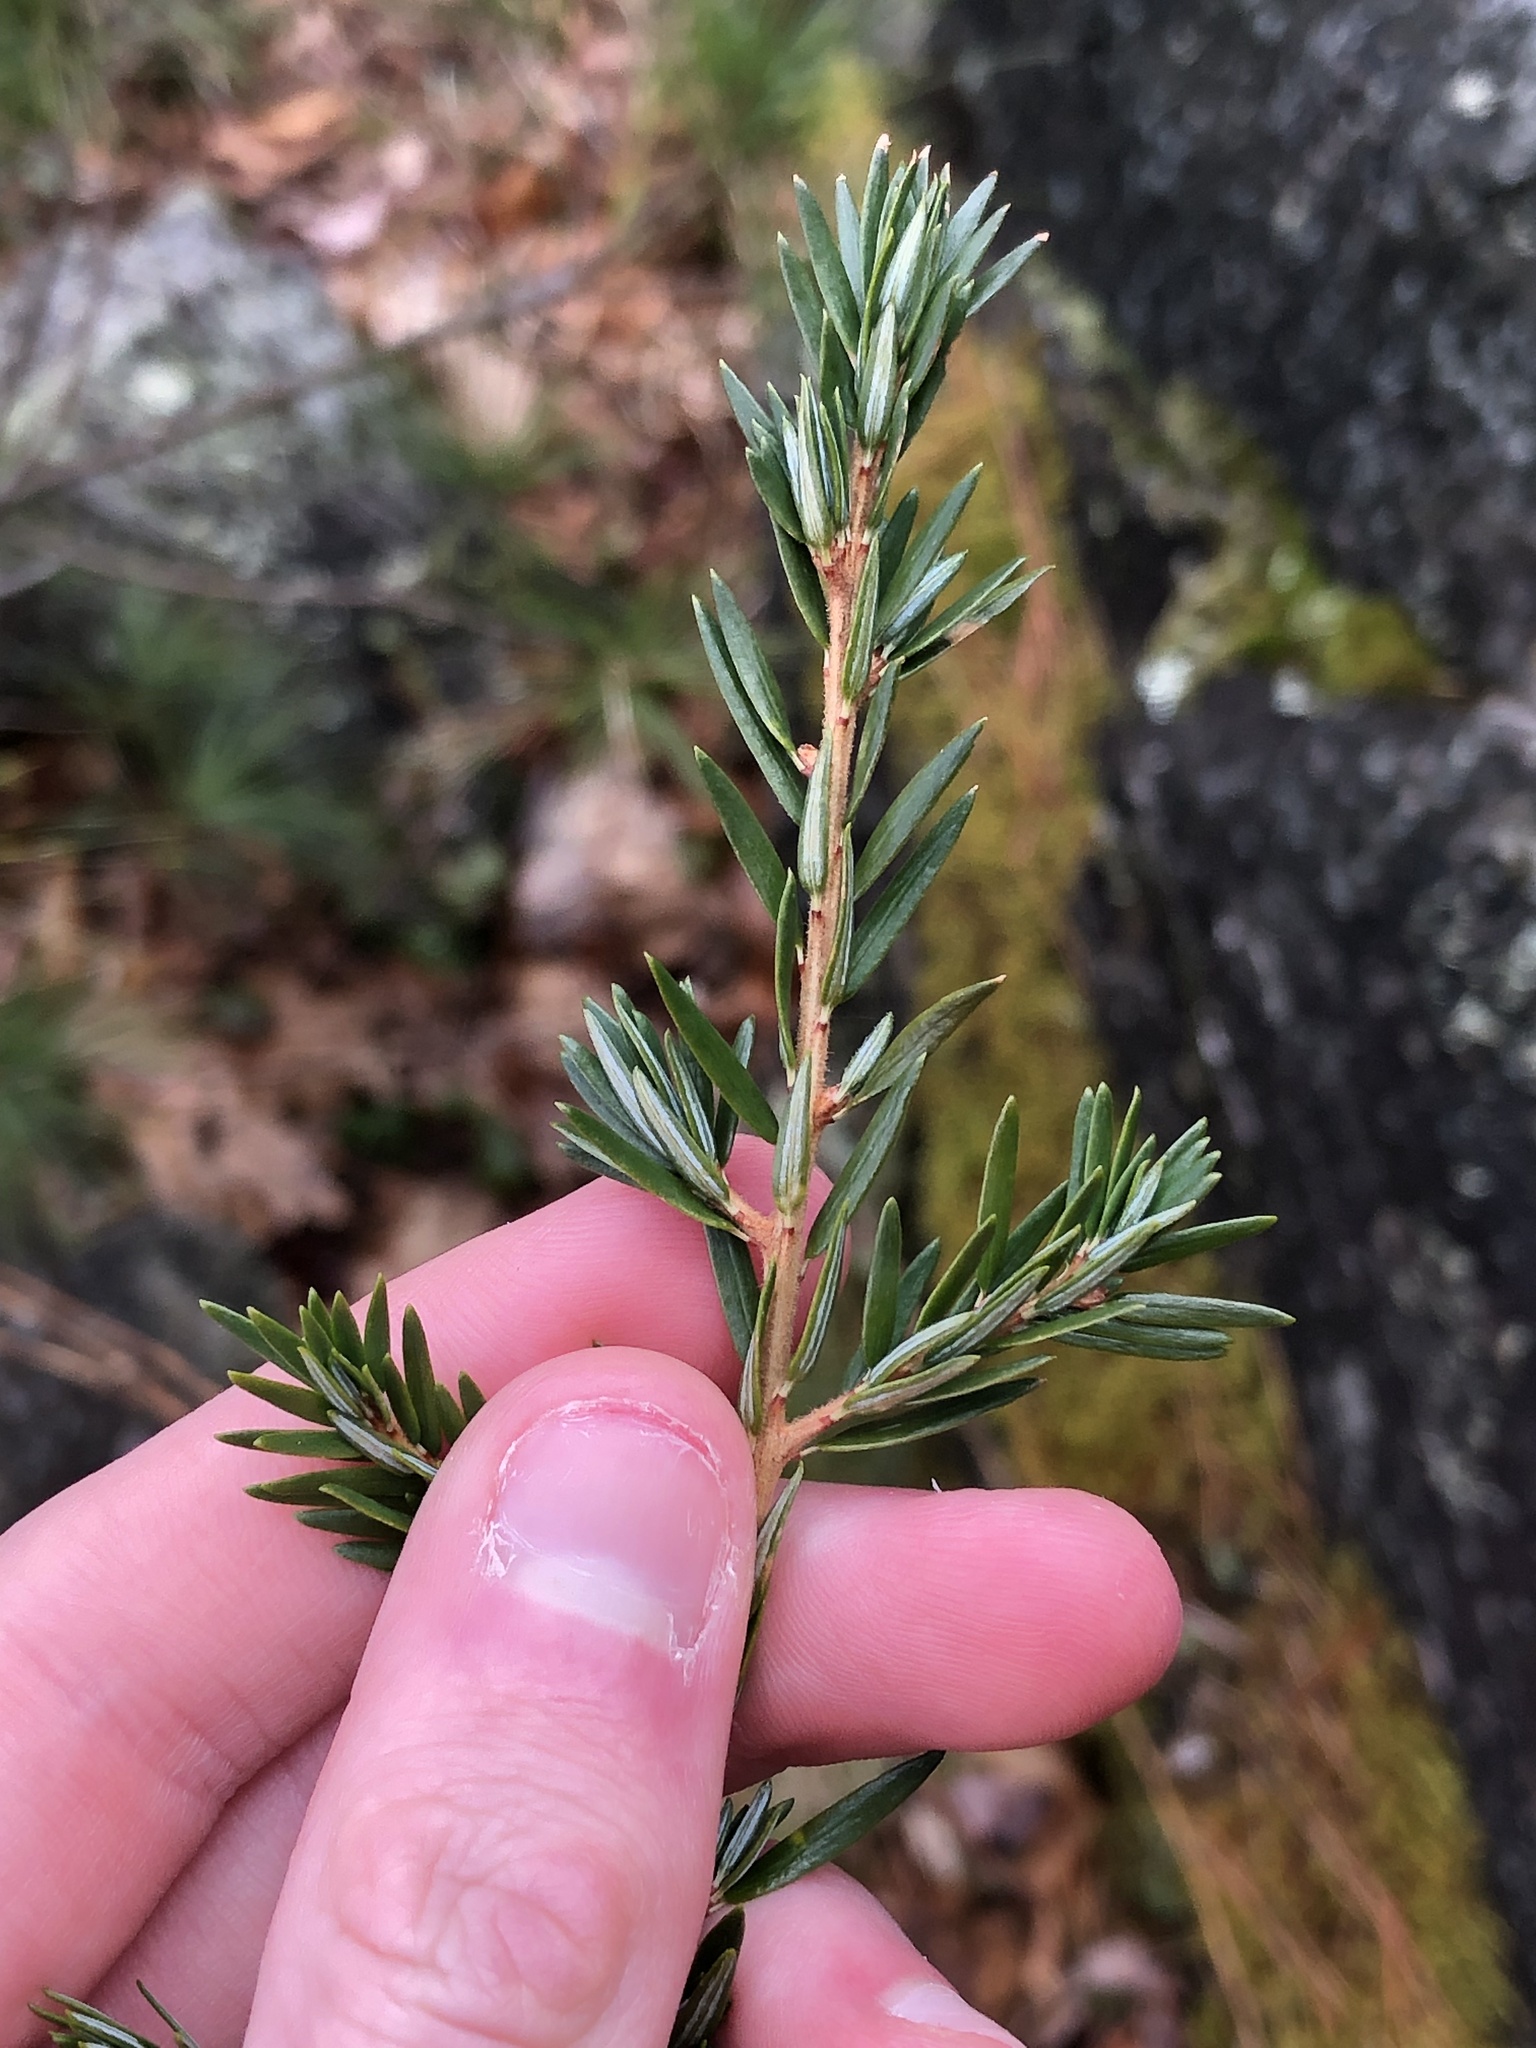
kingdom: Plantae
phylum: Tracheophyta
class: Pinopsida
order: Pinales
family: Pinaceae
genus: Tsuga
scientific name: Tsuga canadensis
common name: Eastern hemlock
